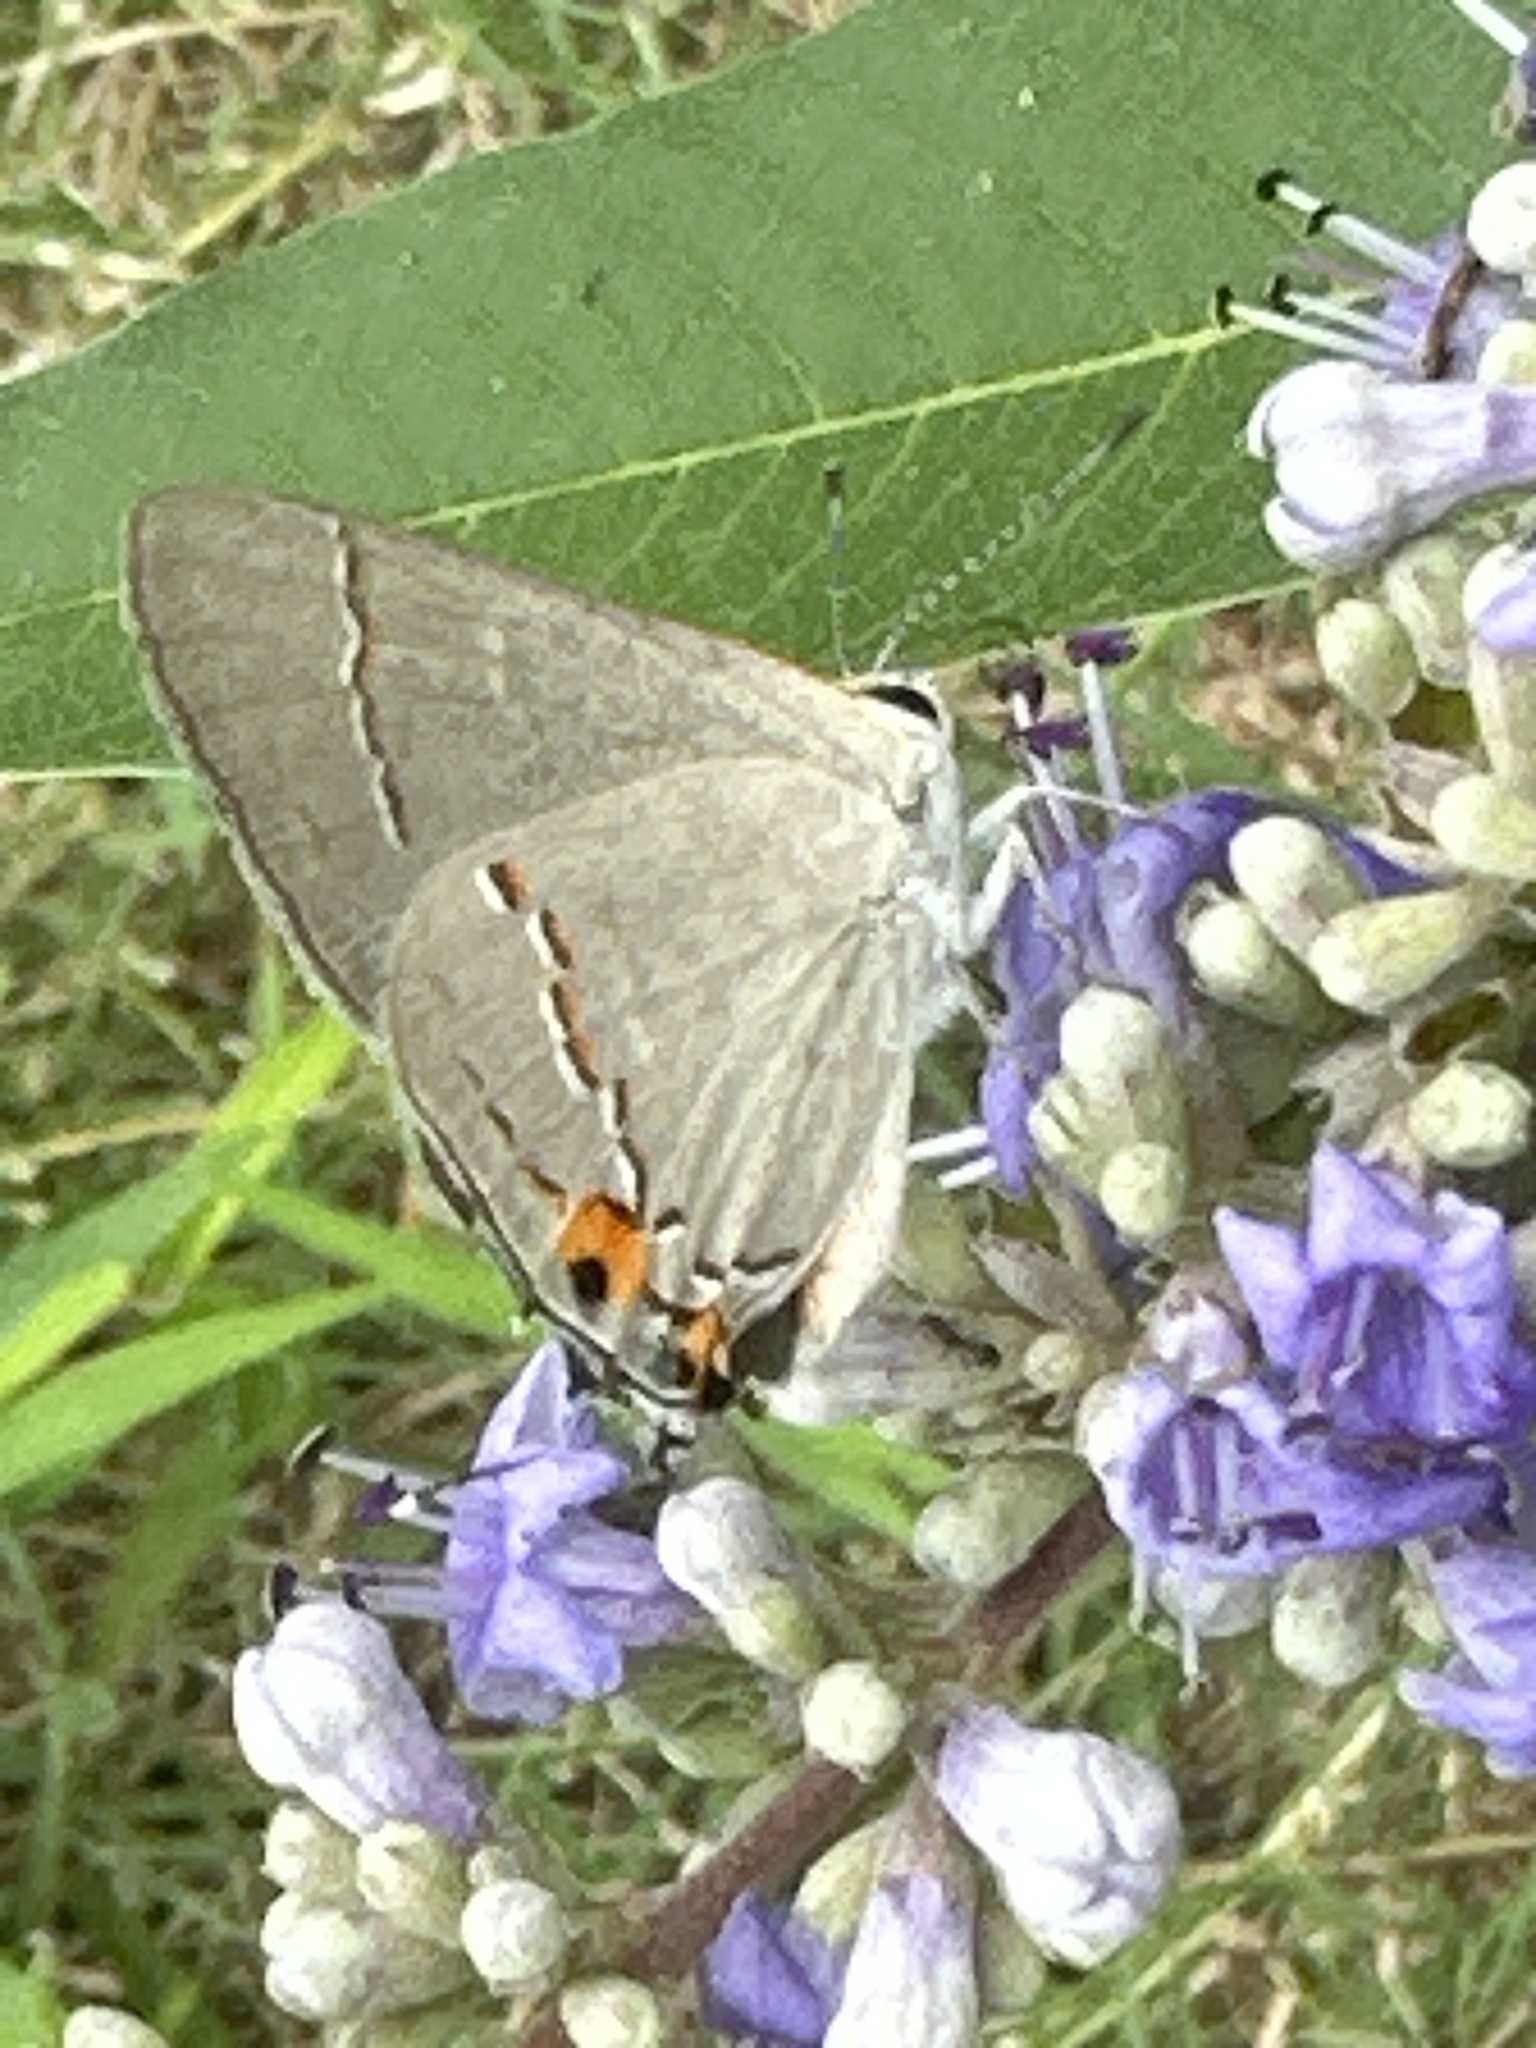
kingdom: Animalia
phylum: Arthropoda
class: Insecta
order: Lepidoptera
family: Lycaenidae
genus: Strymon
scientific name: Strymon melinus
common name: Gray hairstreak
